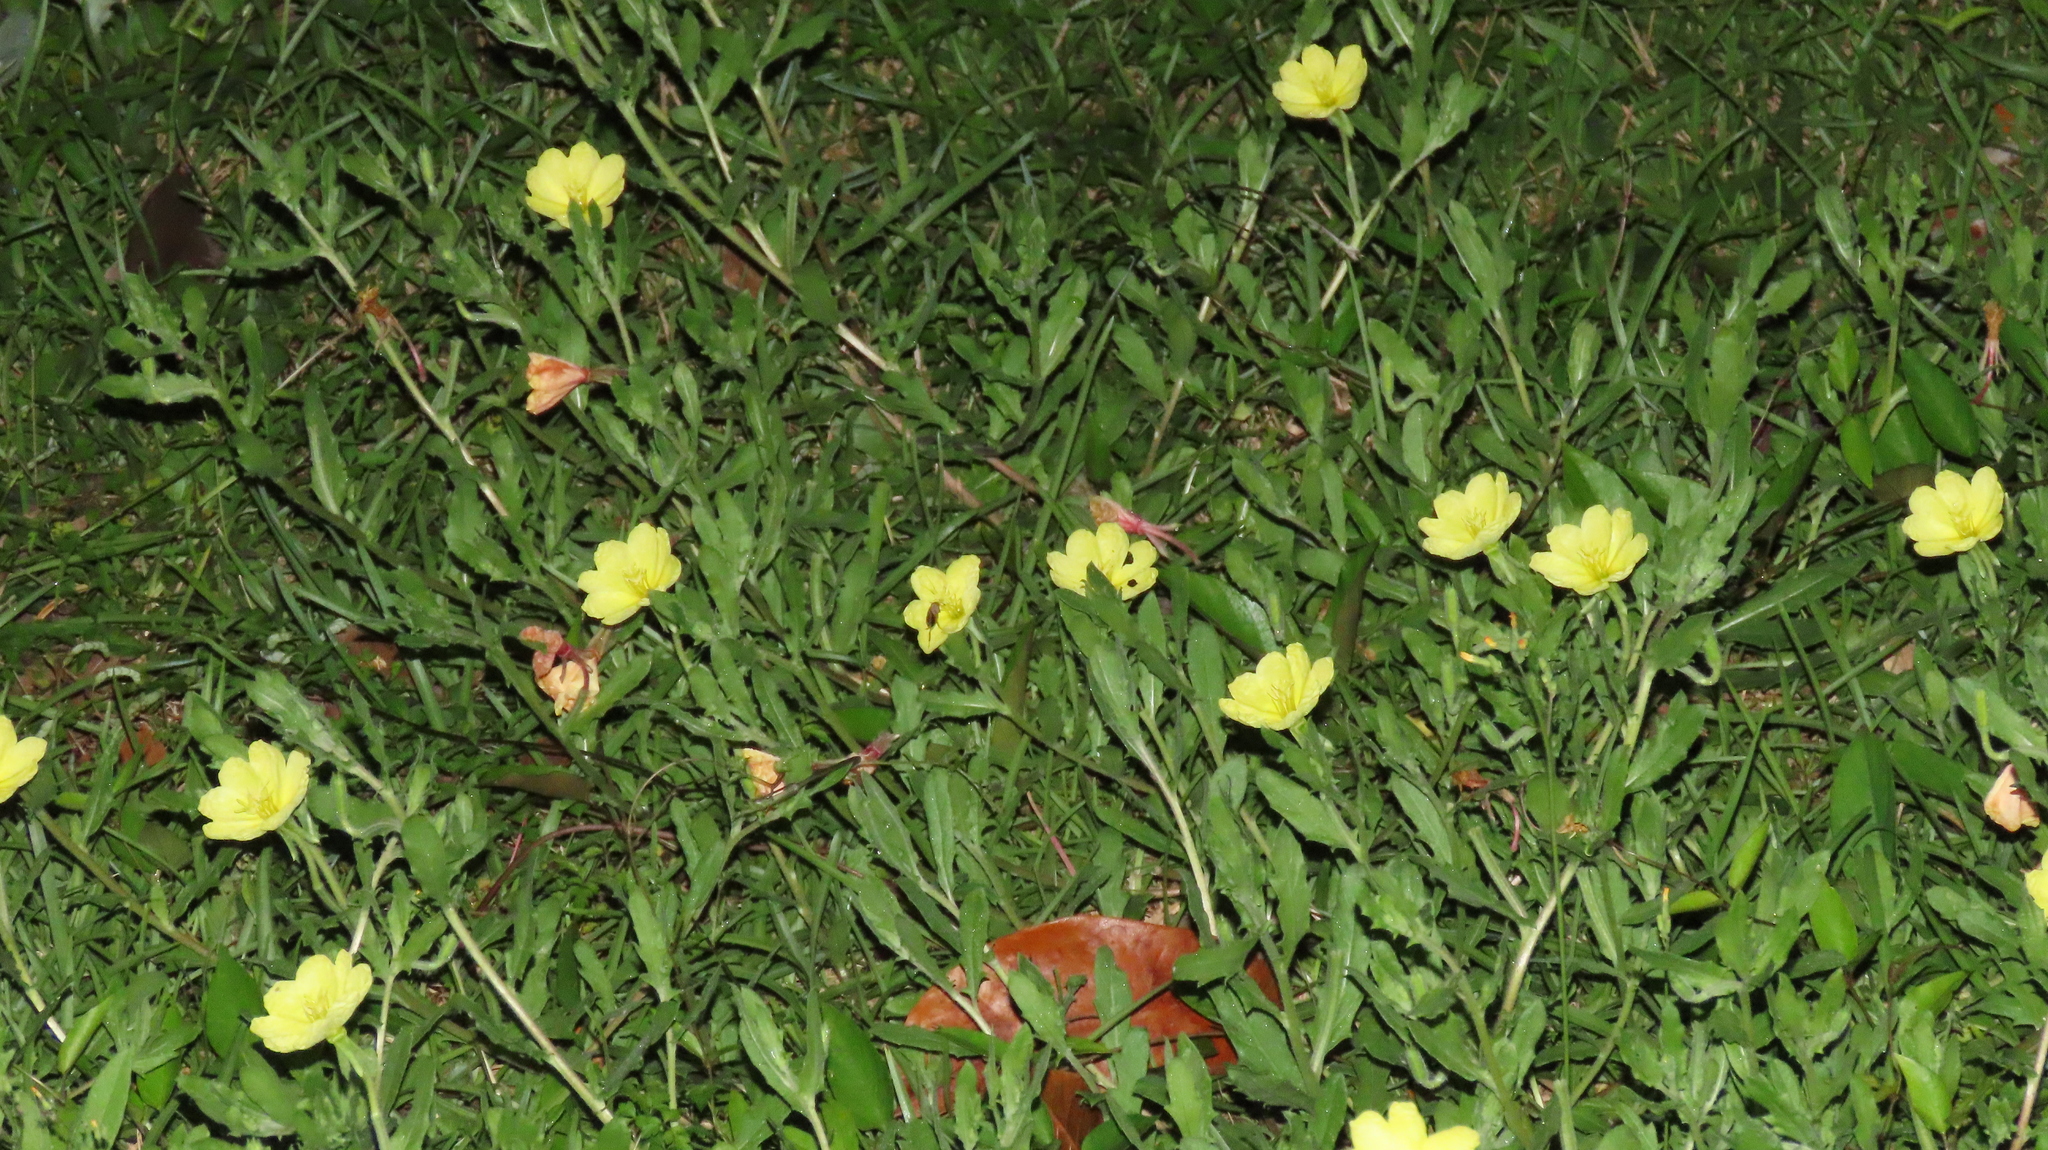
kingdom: Plantae
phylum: Tracheophyta
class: Magnoliopsida
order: Myrtales
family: Onagraceae
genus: Oenothera
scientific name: Oenothera laciniata
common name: Cut-leaved evening-primrose
